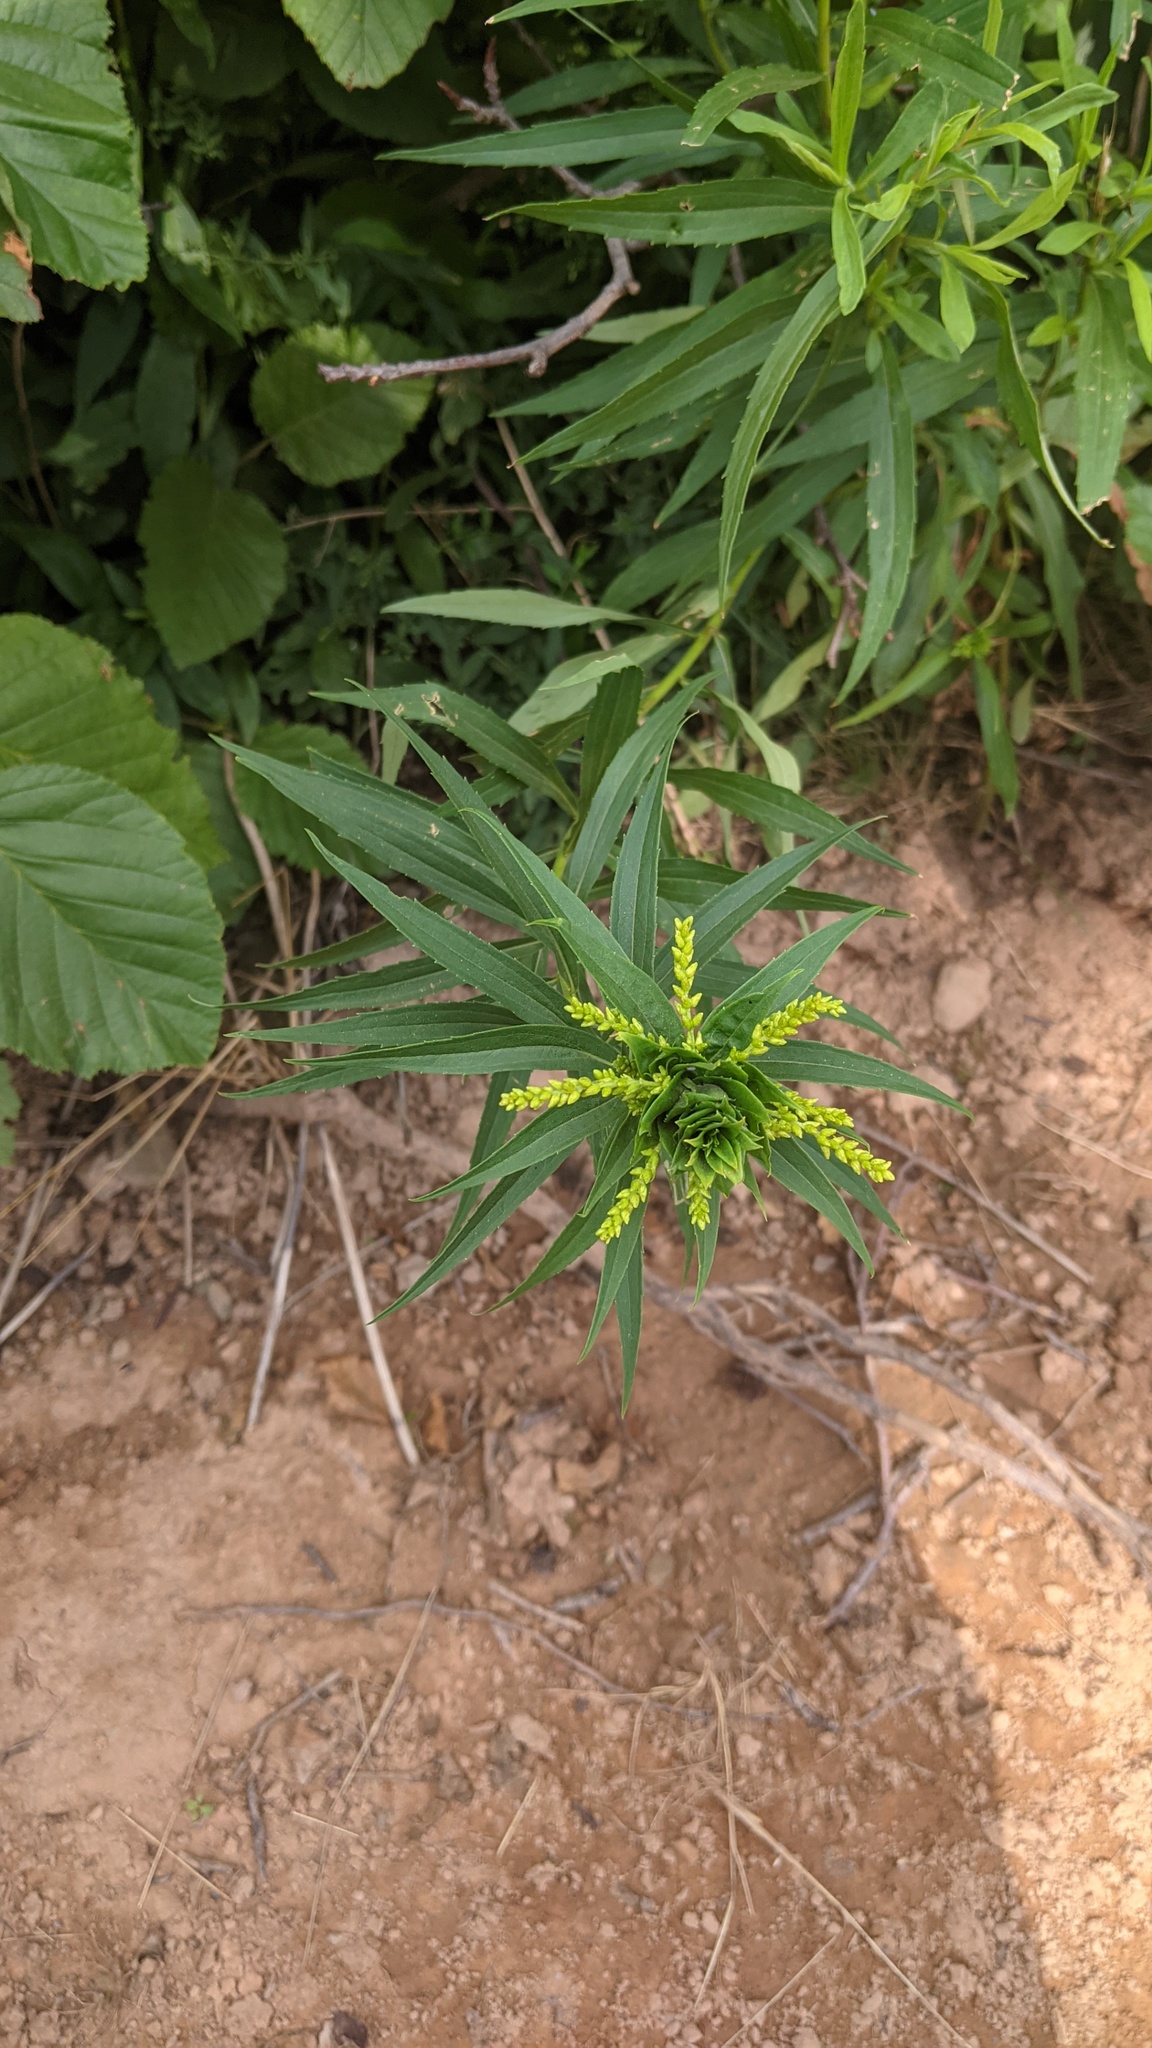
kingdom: Animalia
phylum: Arthropoda
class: Insecta
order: Diptera
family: Cecidomyiidae
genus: Rhopalomyia
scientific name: Rhopalomyia solidaginis
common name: Goldenrod bunch gall midge
